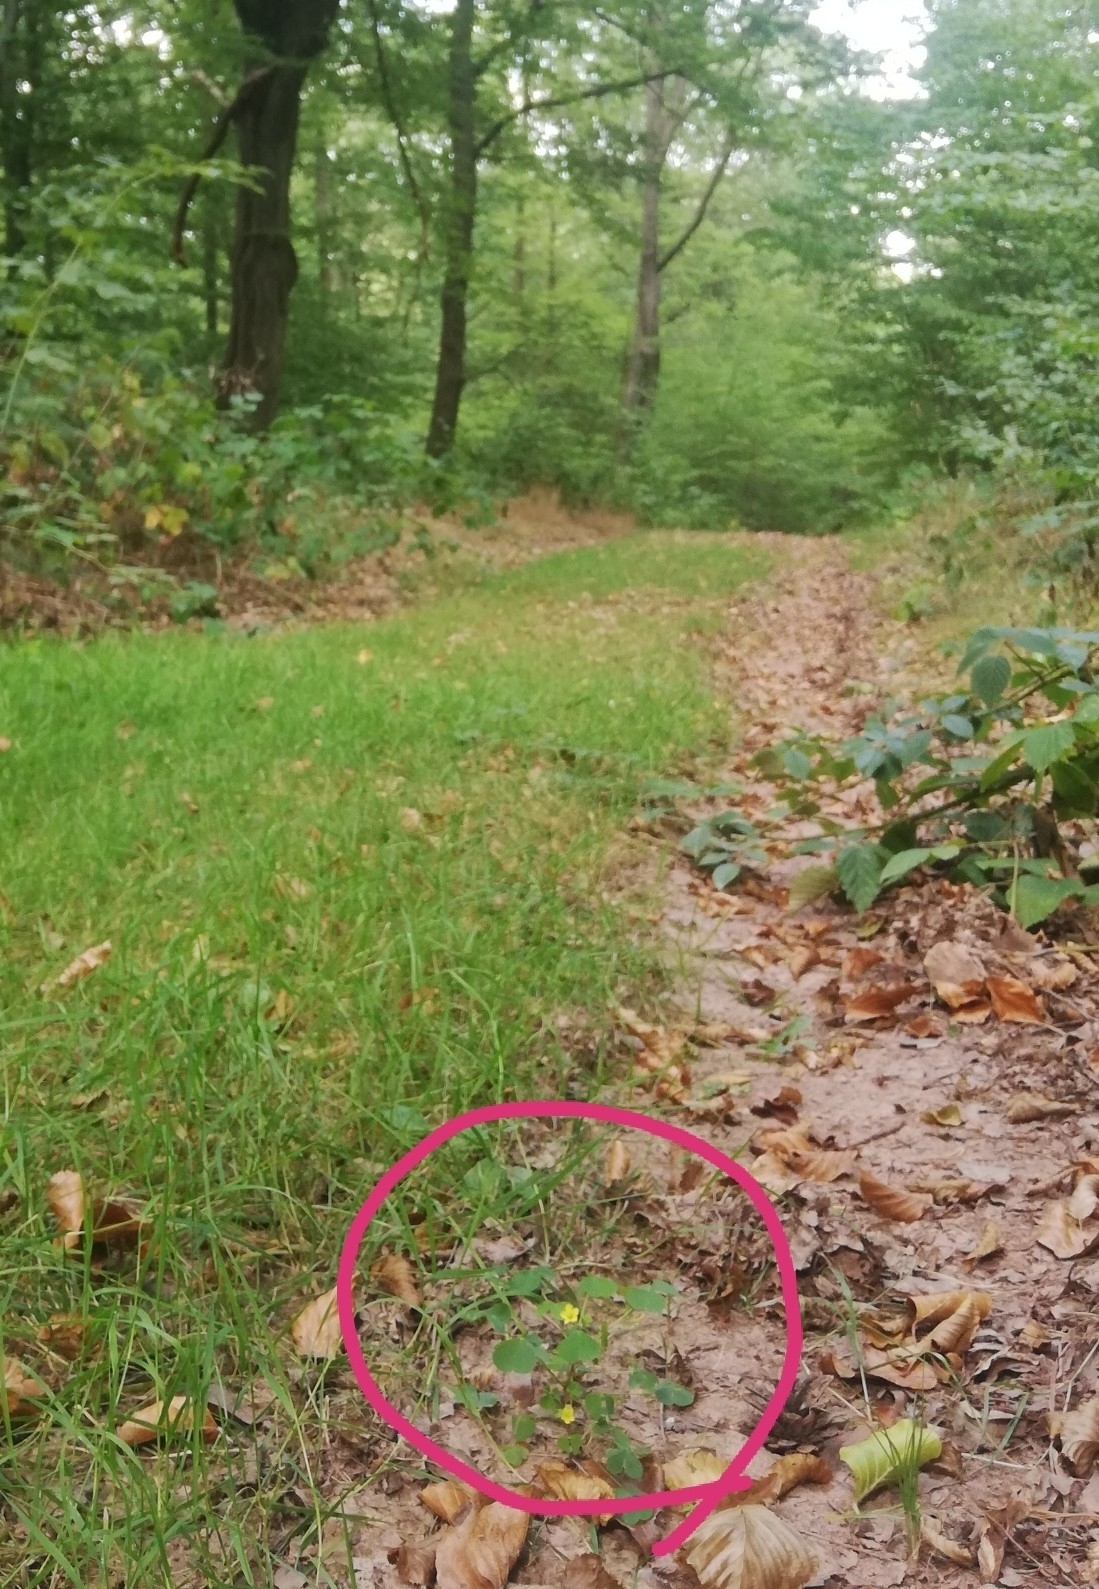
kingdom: Plantae
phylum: Tracheophyta
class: Magnoliopsida
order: Oxalidales
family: Oxalidaceae
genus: Oxalis
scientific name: Oxalis stricta
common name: Upright yellow-sorrel
